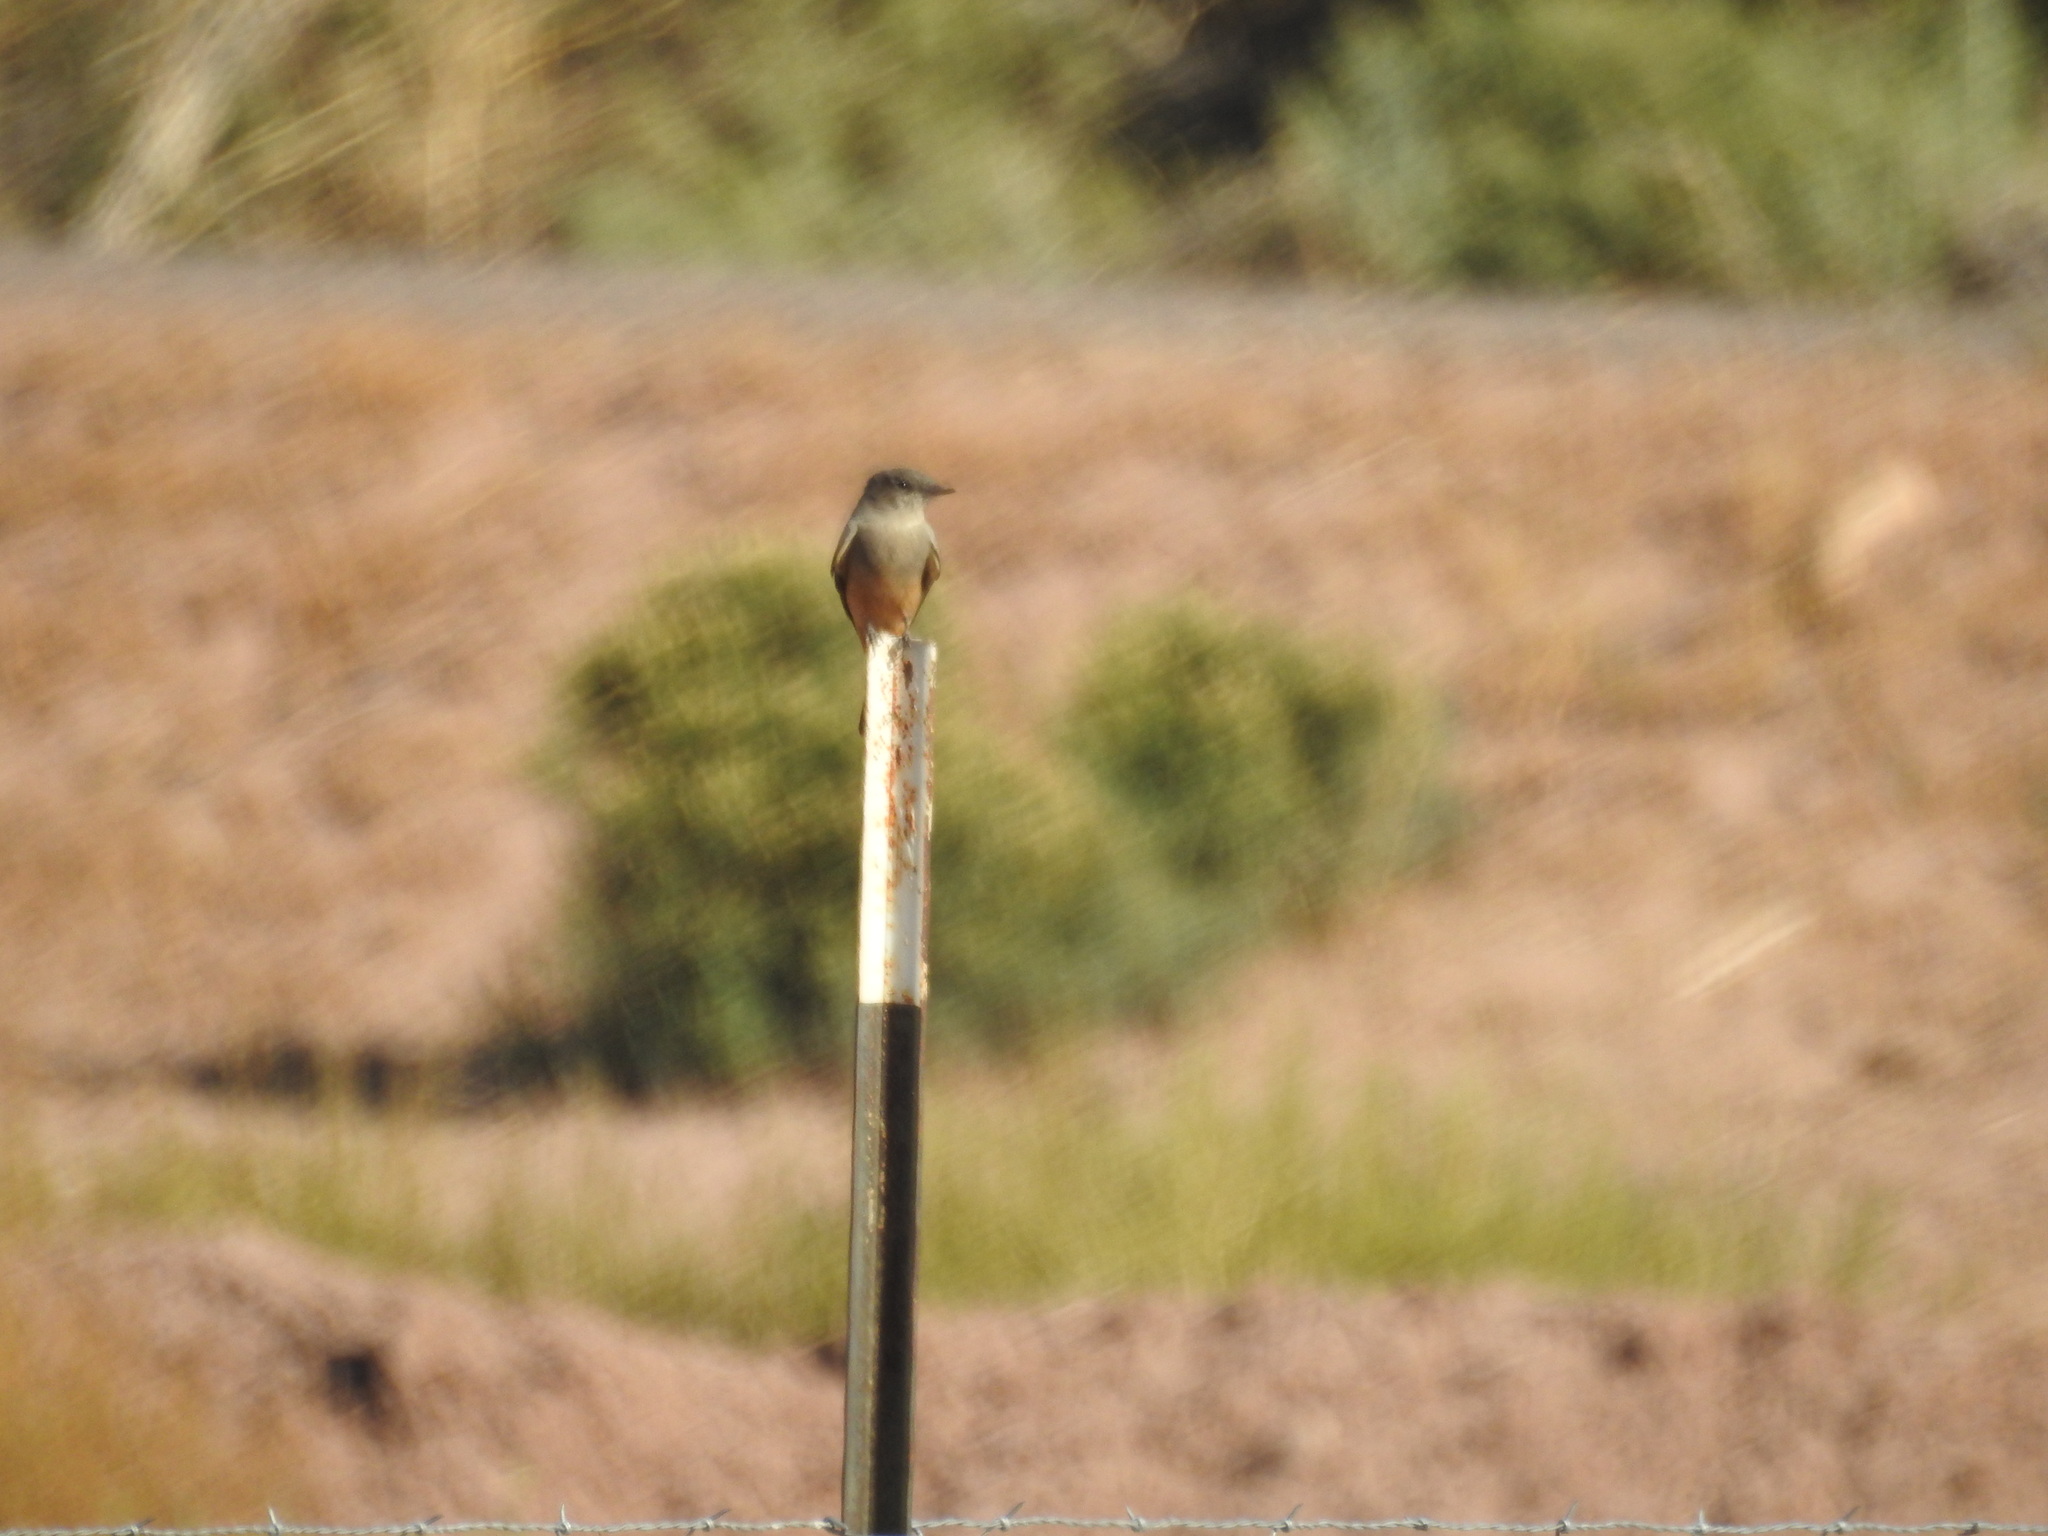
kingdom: Animalia
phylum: Chordata
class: Aves
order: Passeriformes
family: Tyrannidae
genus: Sayornis
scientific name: Sayornis saya
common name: Say's phoebe
